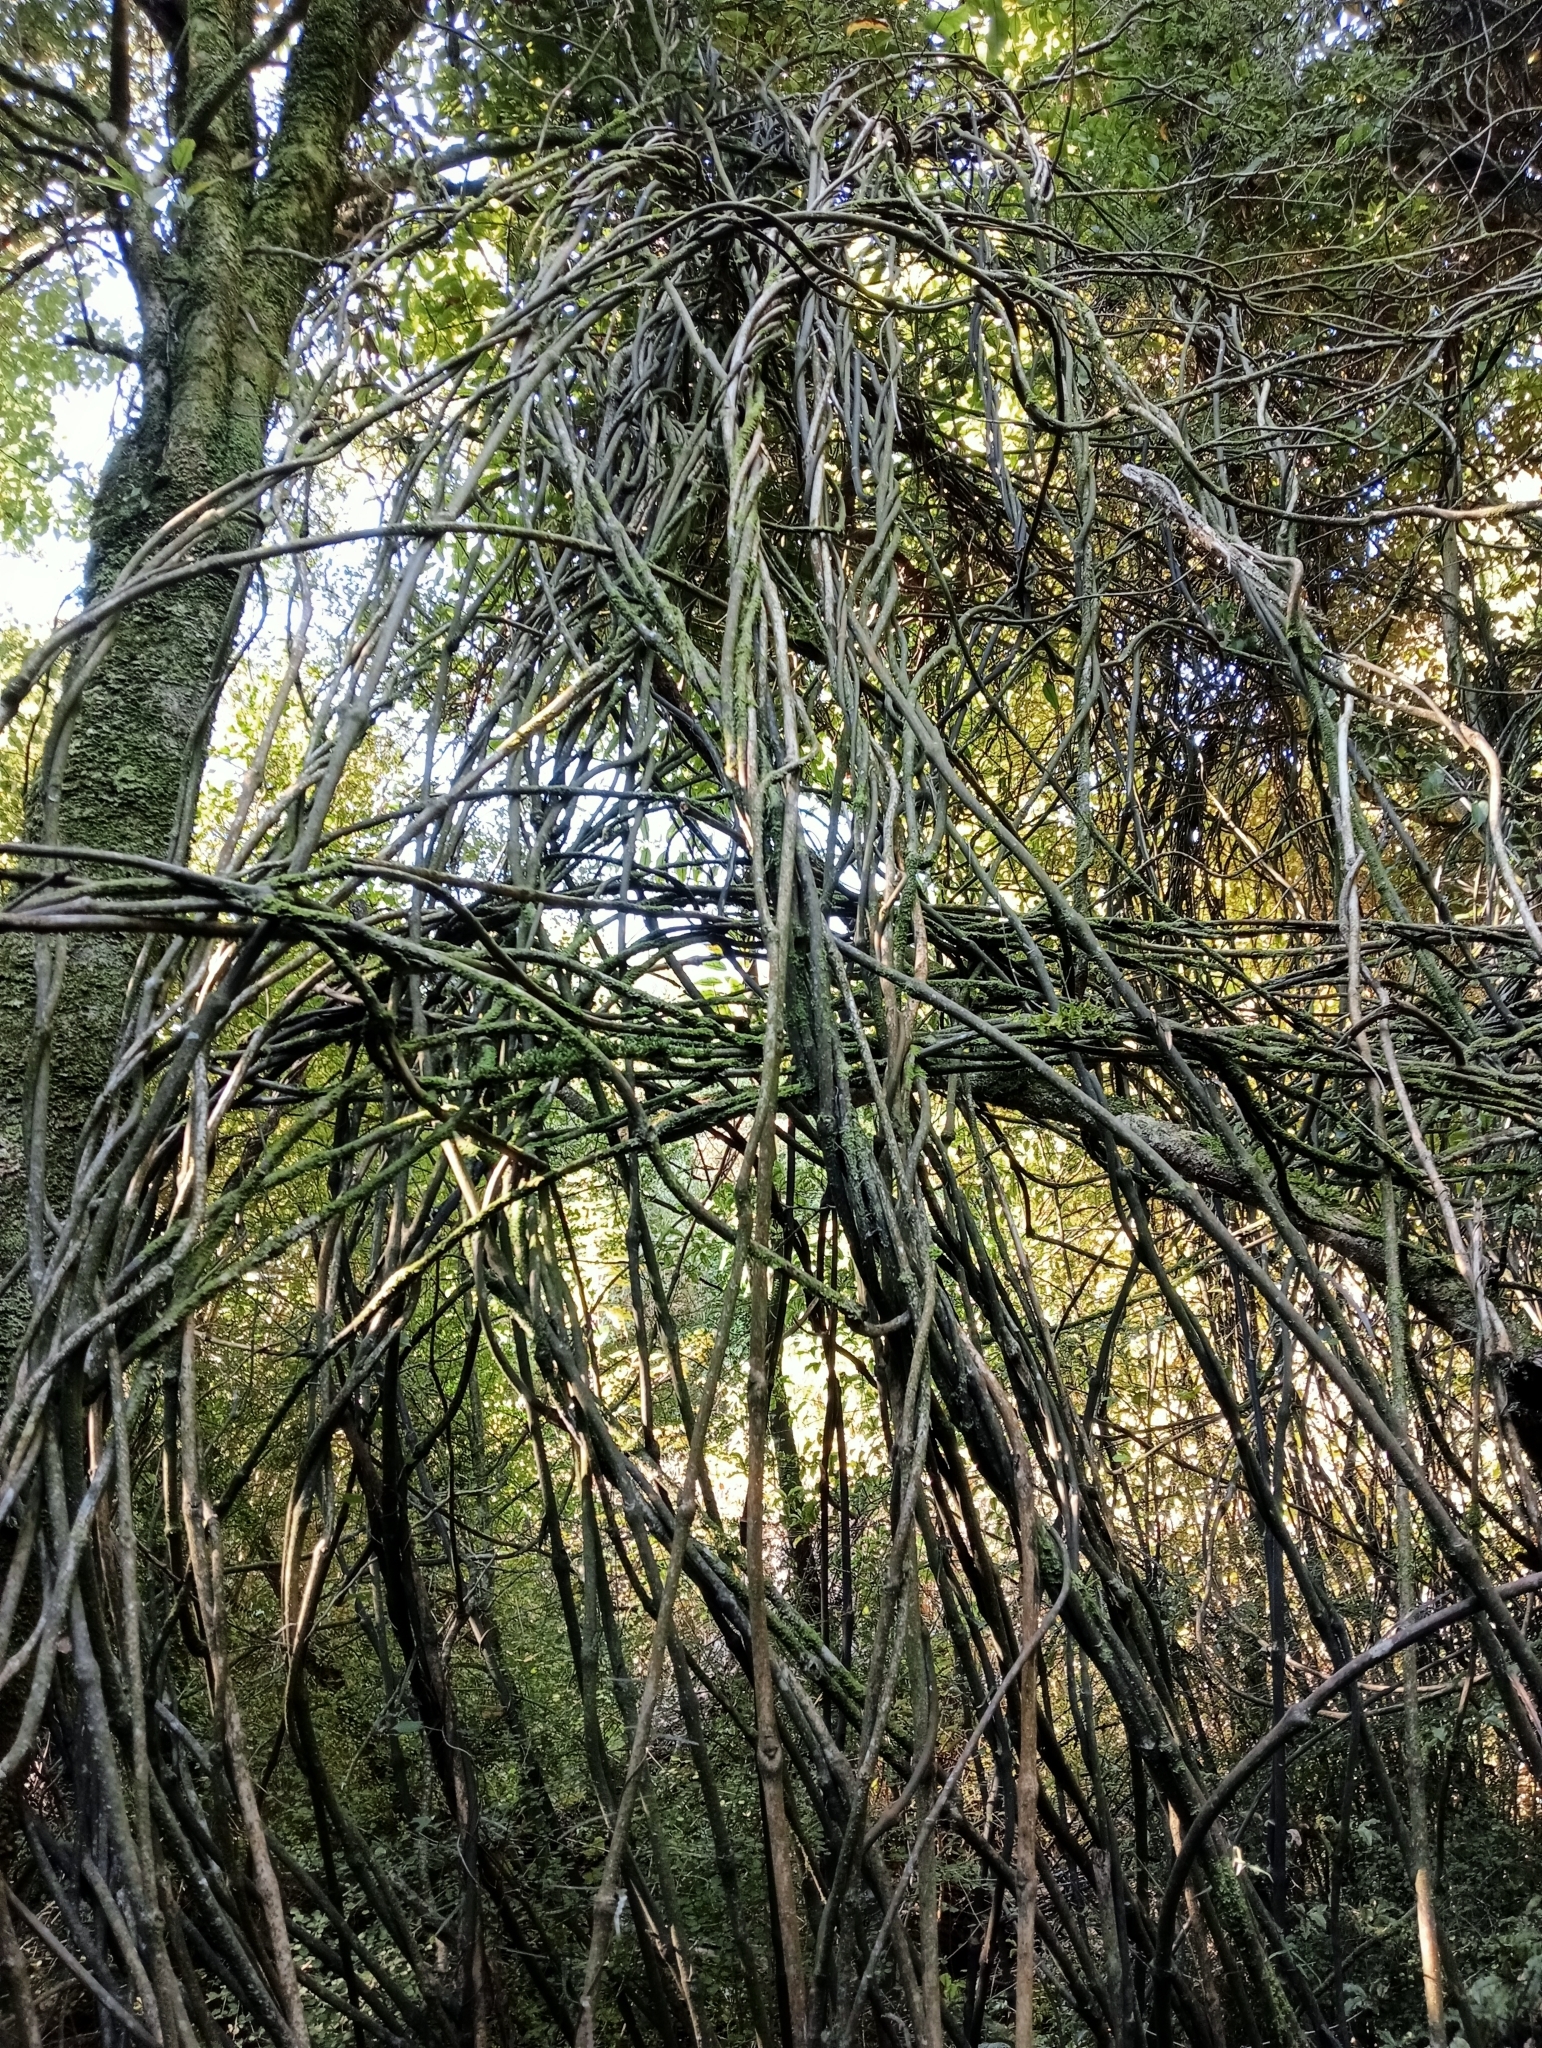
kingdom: Plantae
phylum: Tracheophyta
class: Liliopsida
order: Liliales
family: Ripogonaceae
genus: Ripogonum
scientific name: Ripogonum scandens
